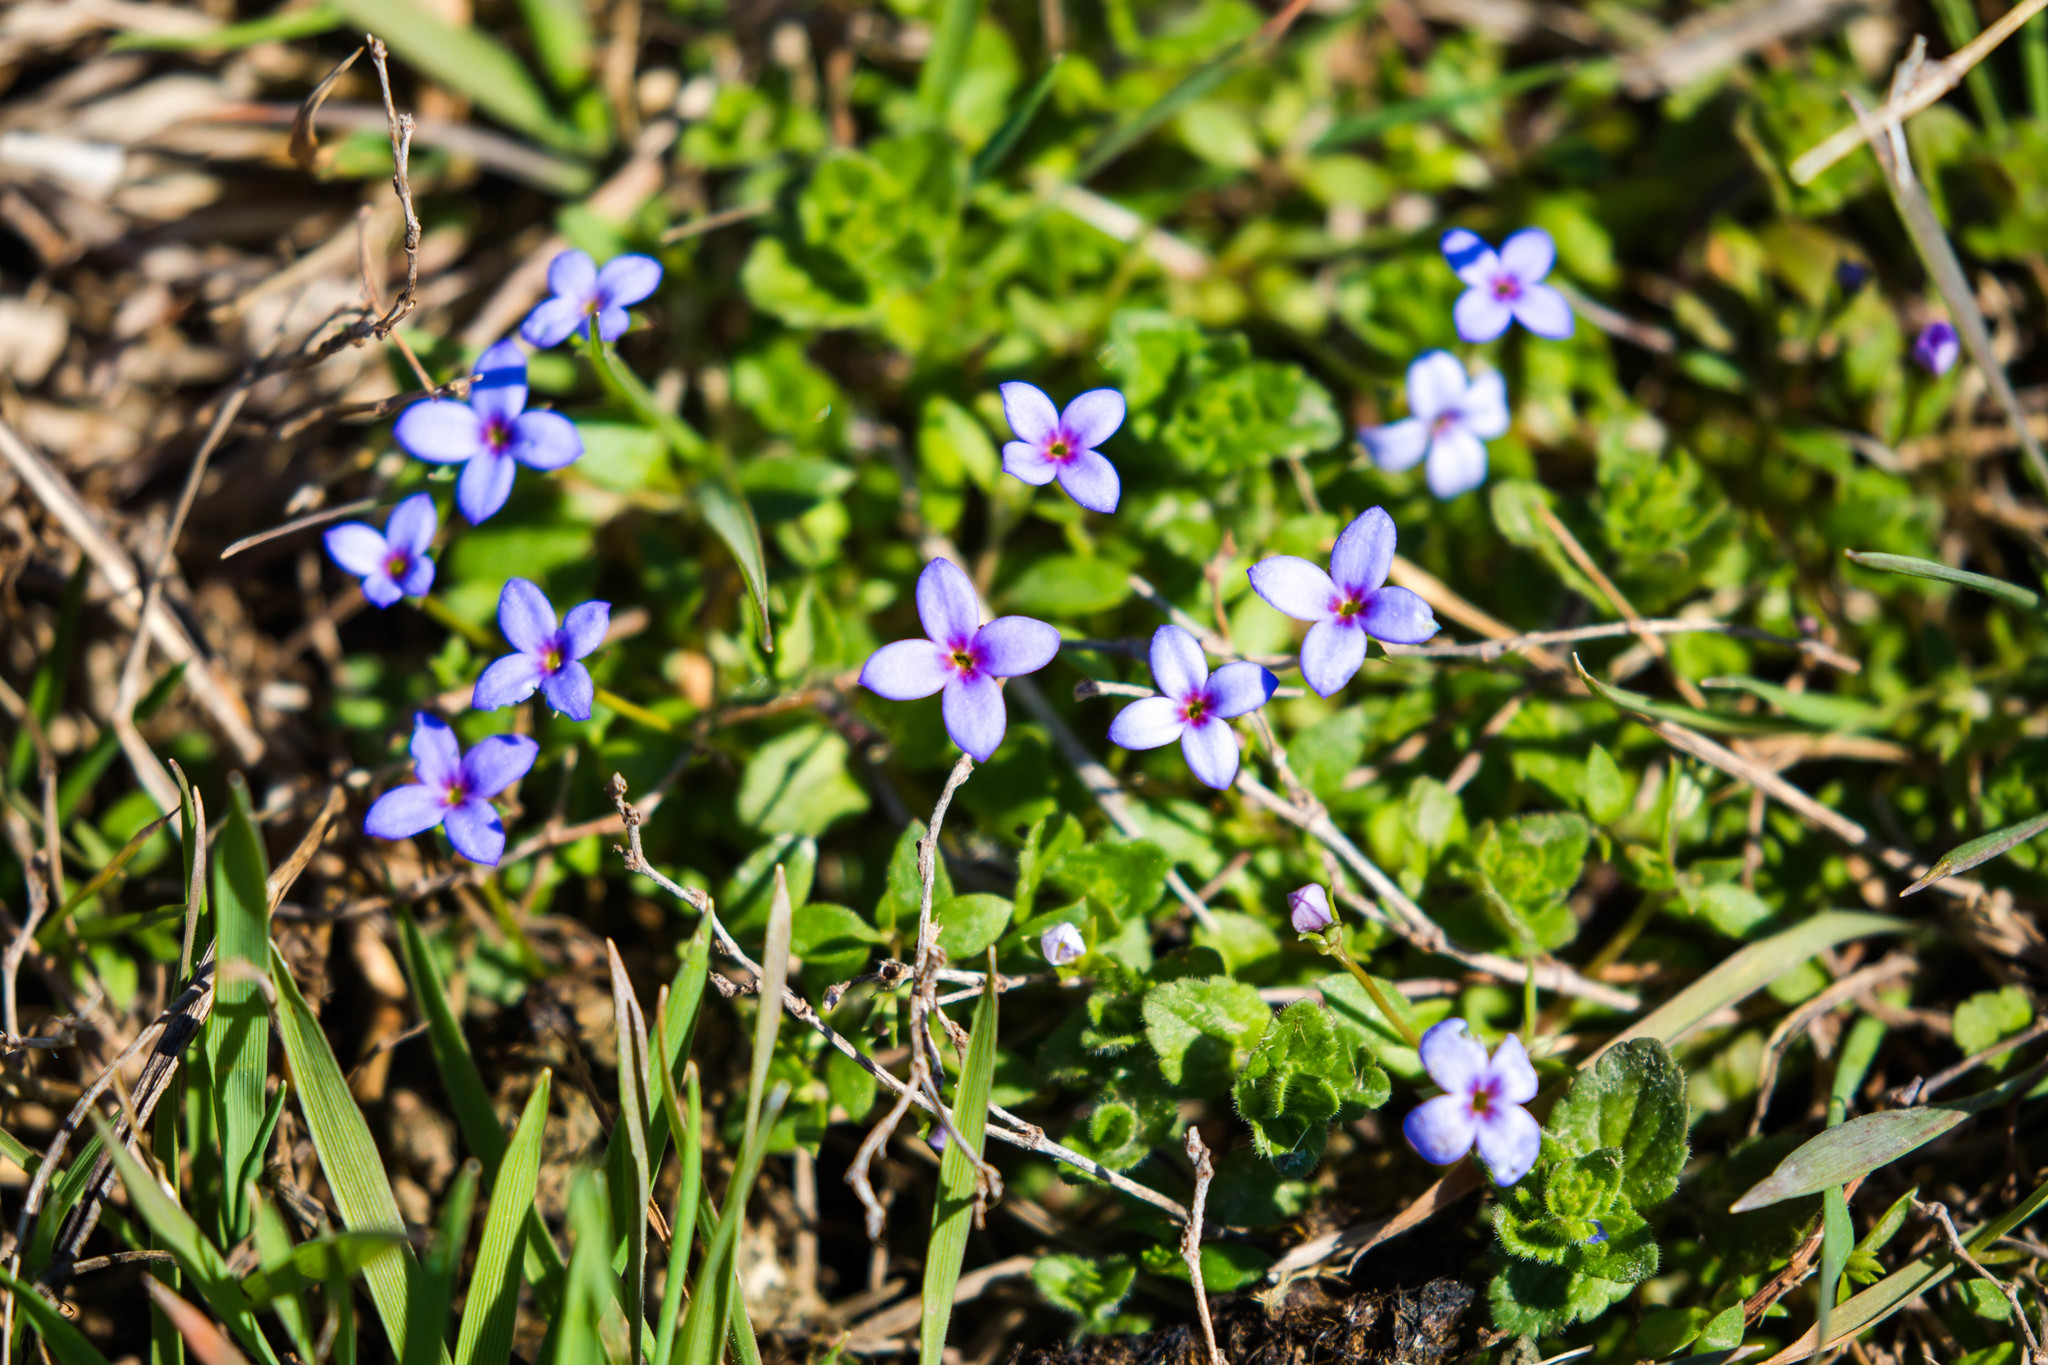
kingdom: Plantae
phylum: Tracheophyta
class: Magnoliopsida
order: Gentianales
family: Rubiaceae
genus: Houstonia
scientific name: Houstonia pusilla
